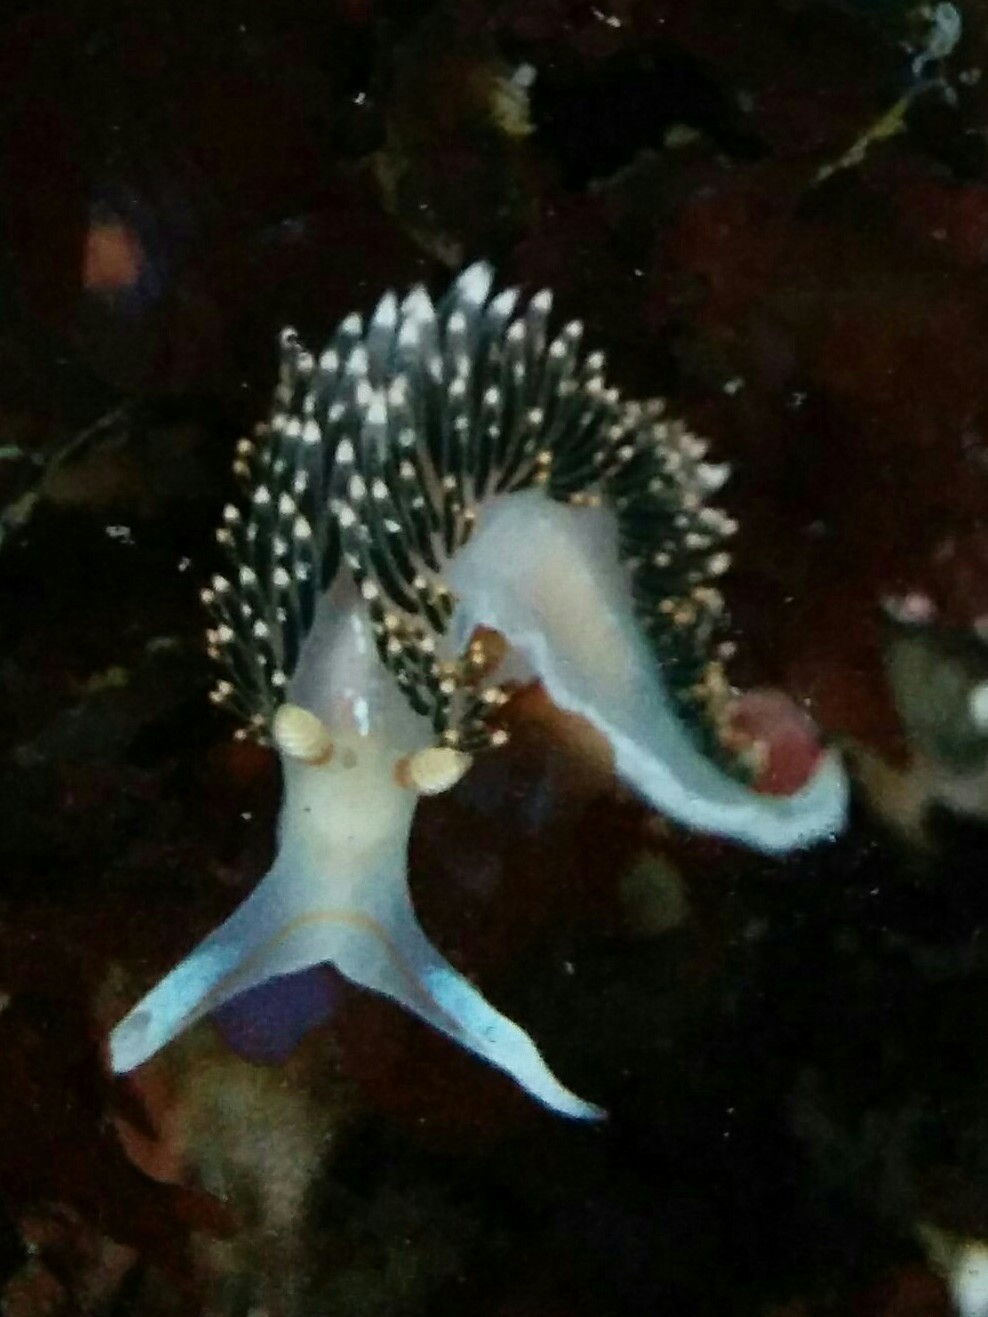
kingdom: Animalia
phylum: Mollusca
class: Gastropoda
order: Nudibranchia
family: Facelinidae
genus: Phidiana
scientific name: Phidiana hiltoni
